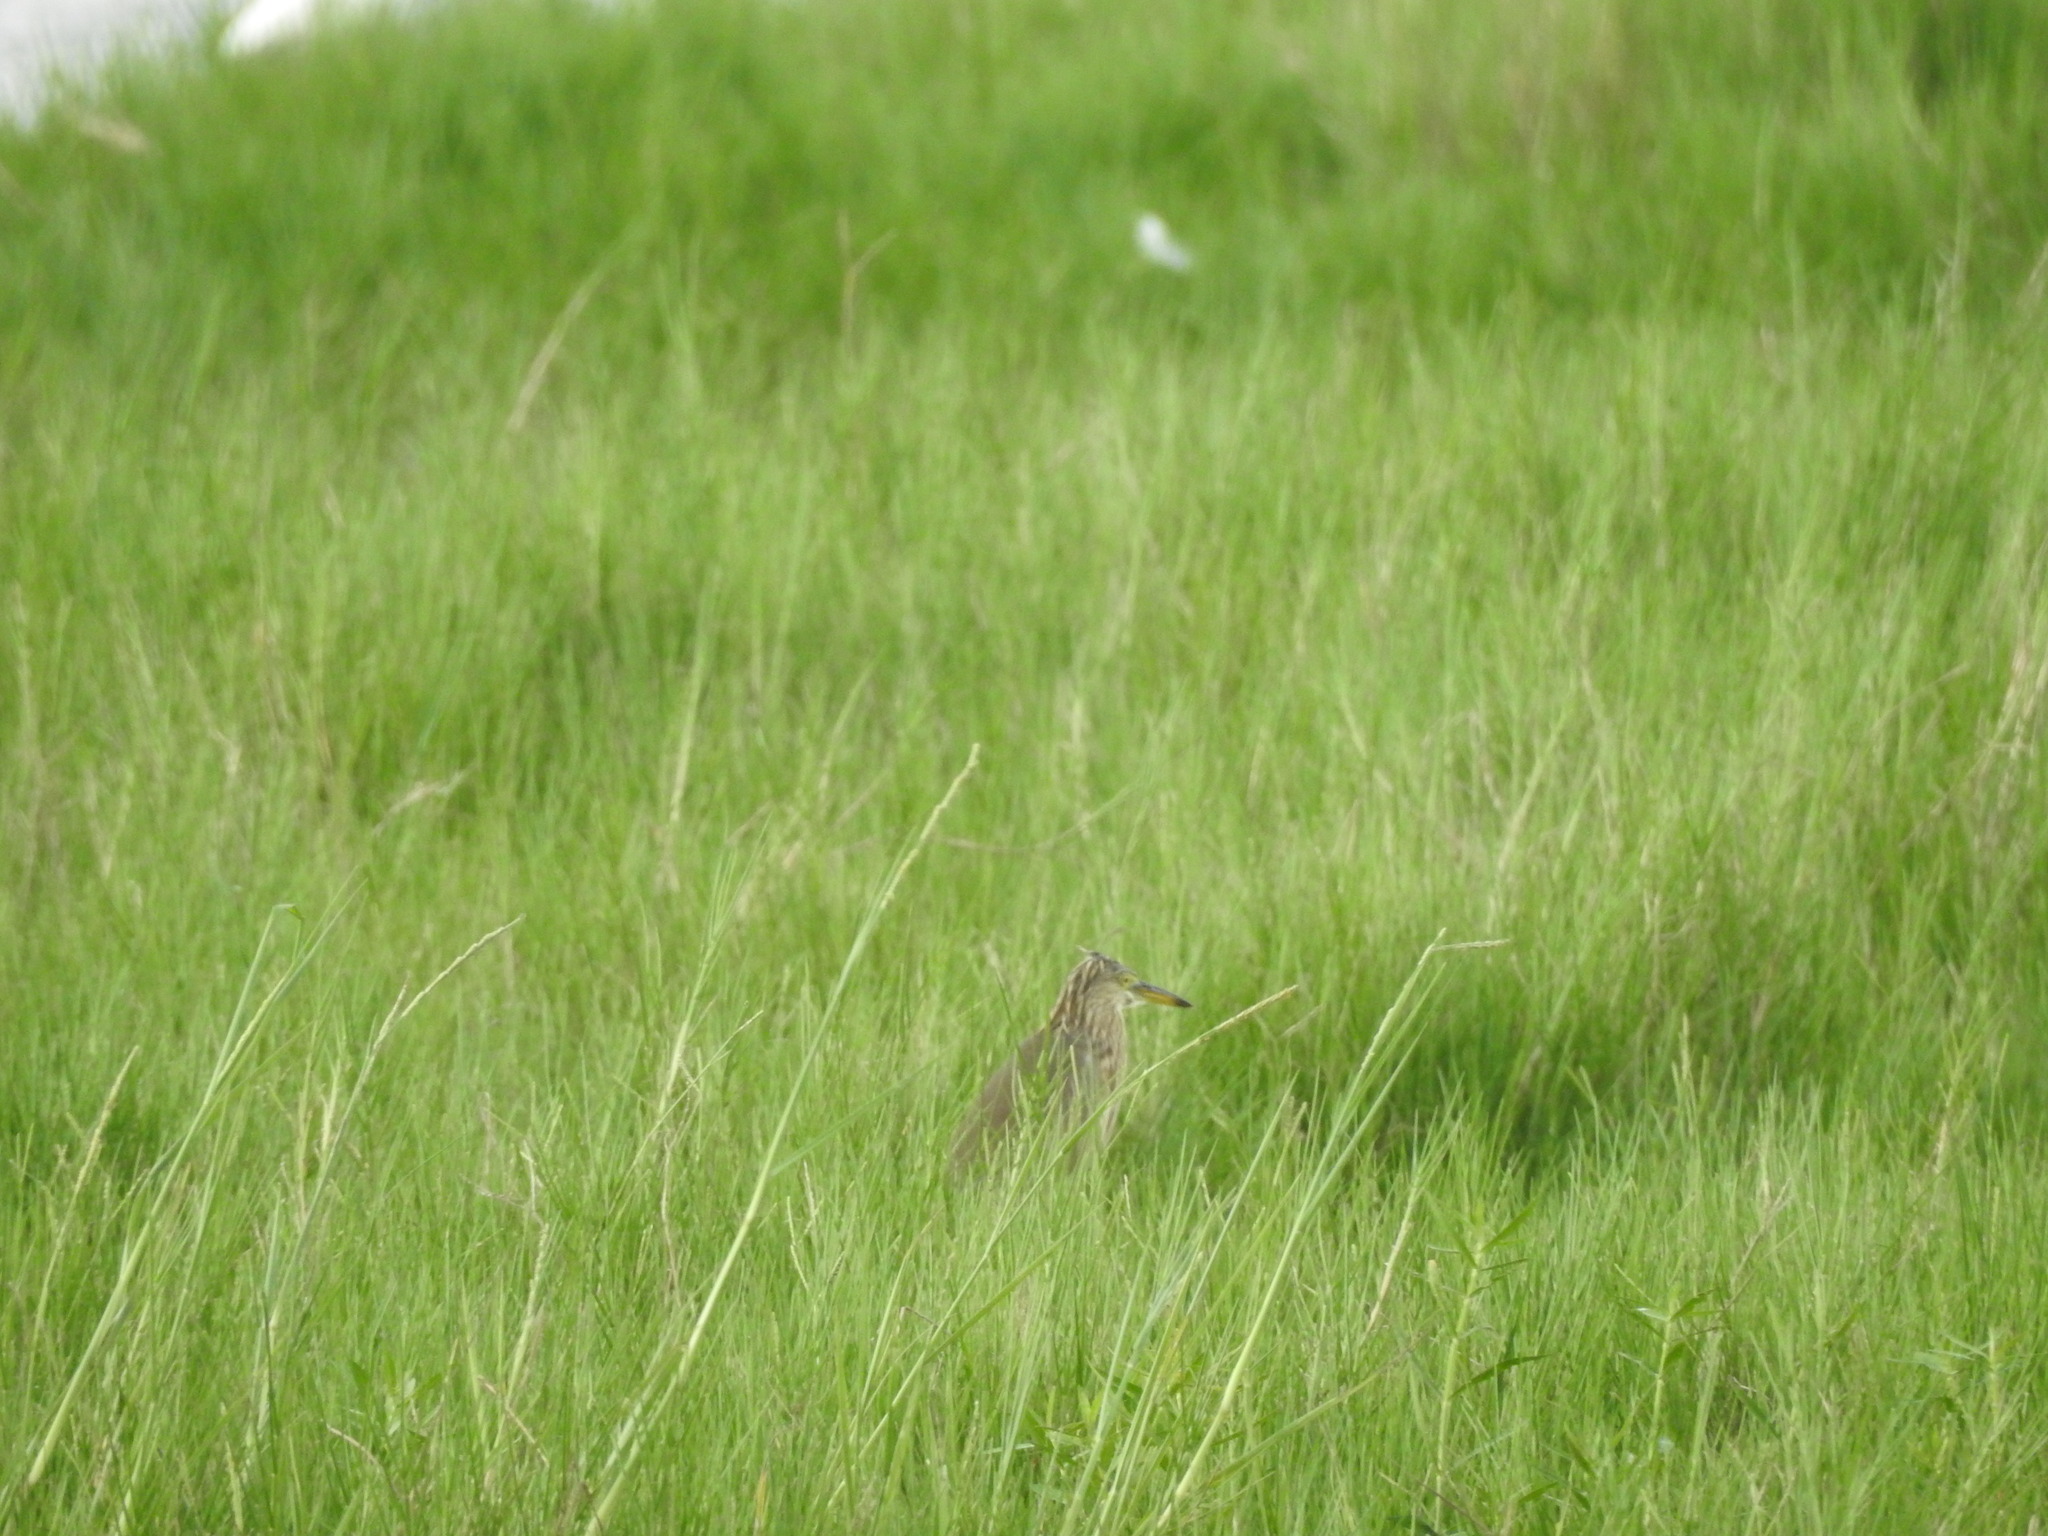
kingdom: Animalia
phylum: Chordata
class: Aves
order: Pelecaniformes
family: Ardeidae
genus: Ardeola
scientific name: Ardeola grayii
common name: Indian pond heron
